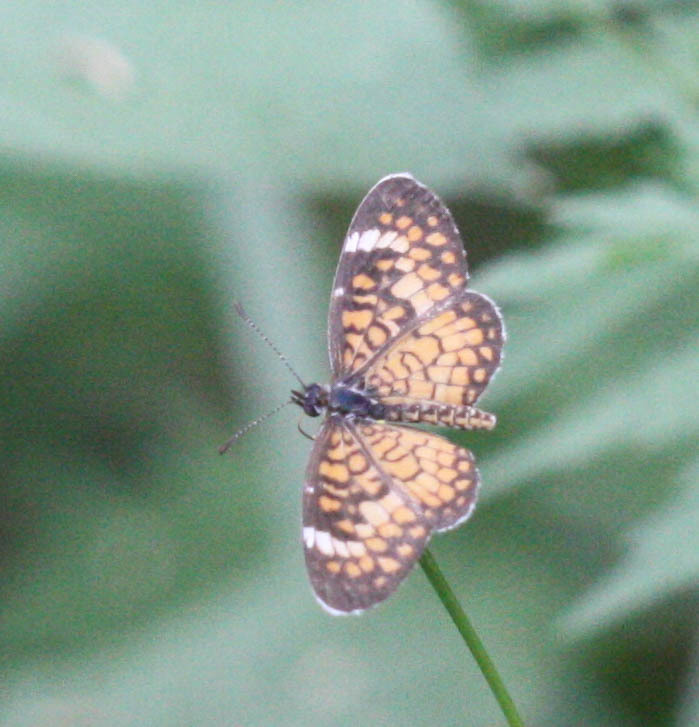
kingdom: Animalia
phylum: Arthropoda
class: Insecta
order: Lepidoptera
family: Nymphalidae
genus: Dymasia
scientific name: Dymasia dymas
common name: Tiny checkerspot
